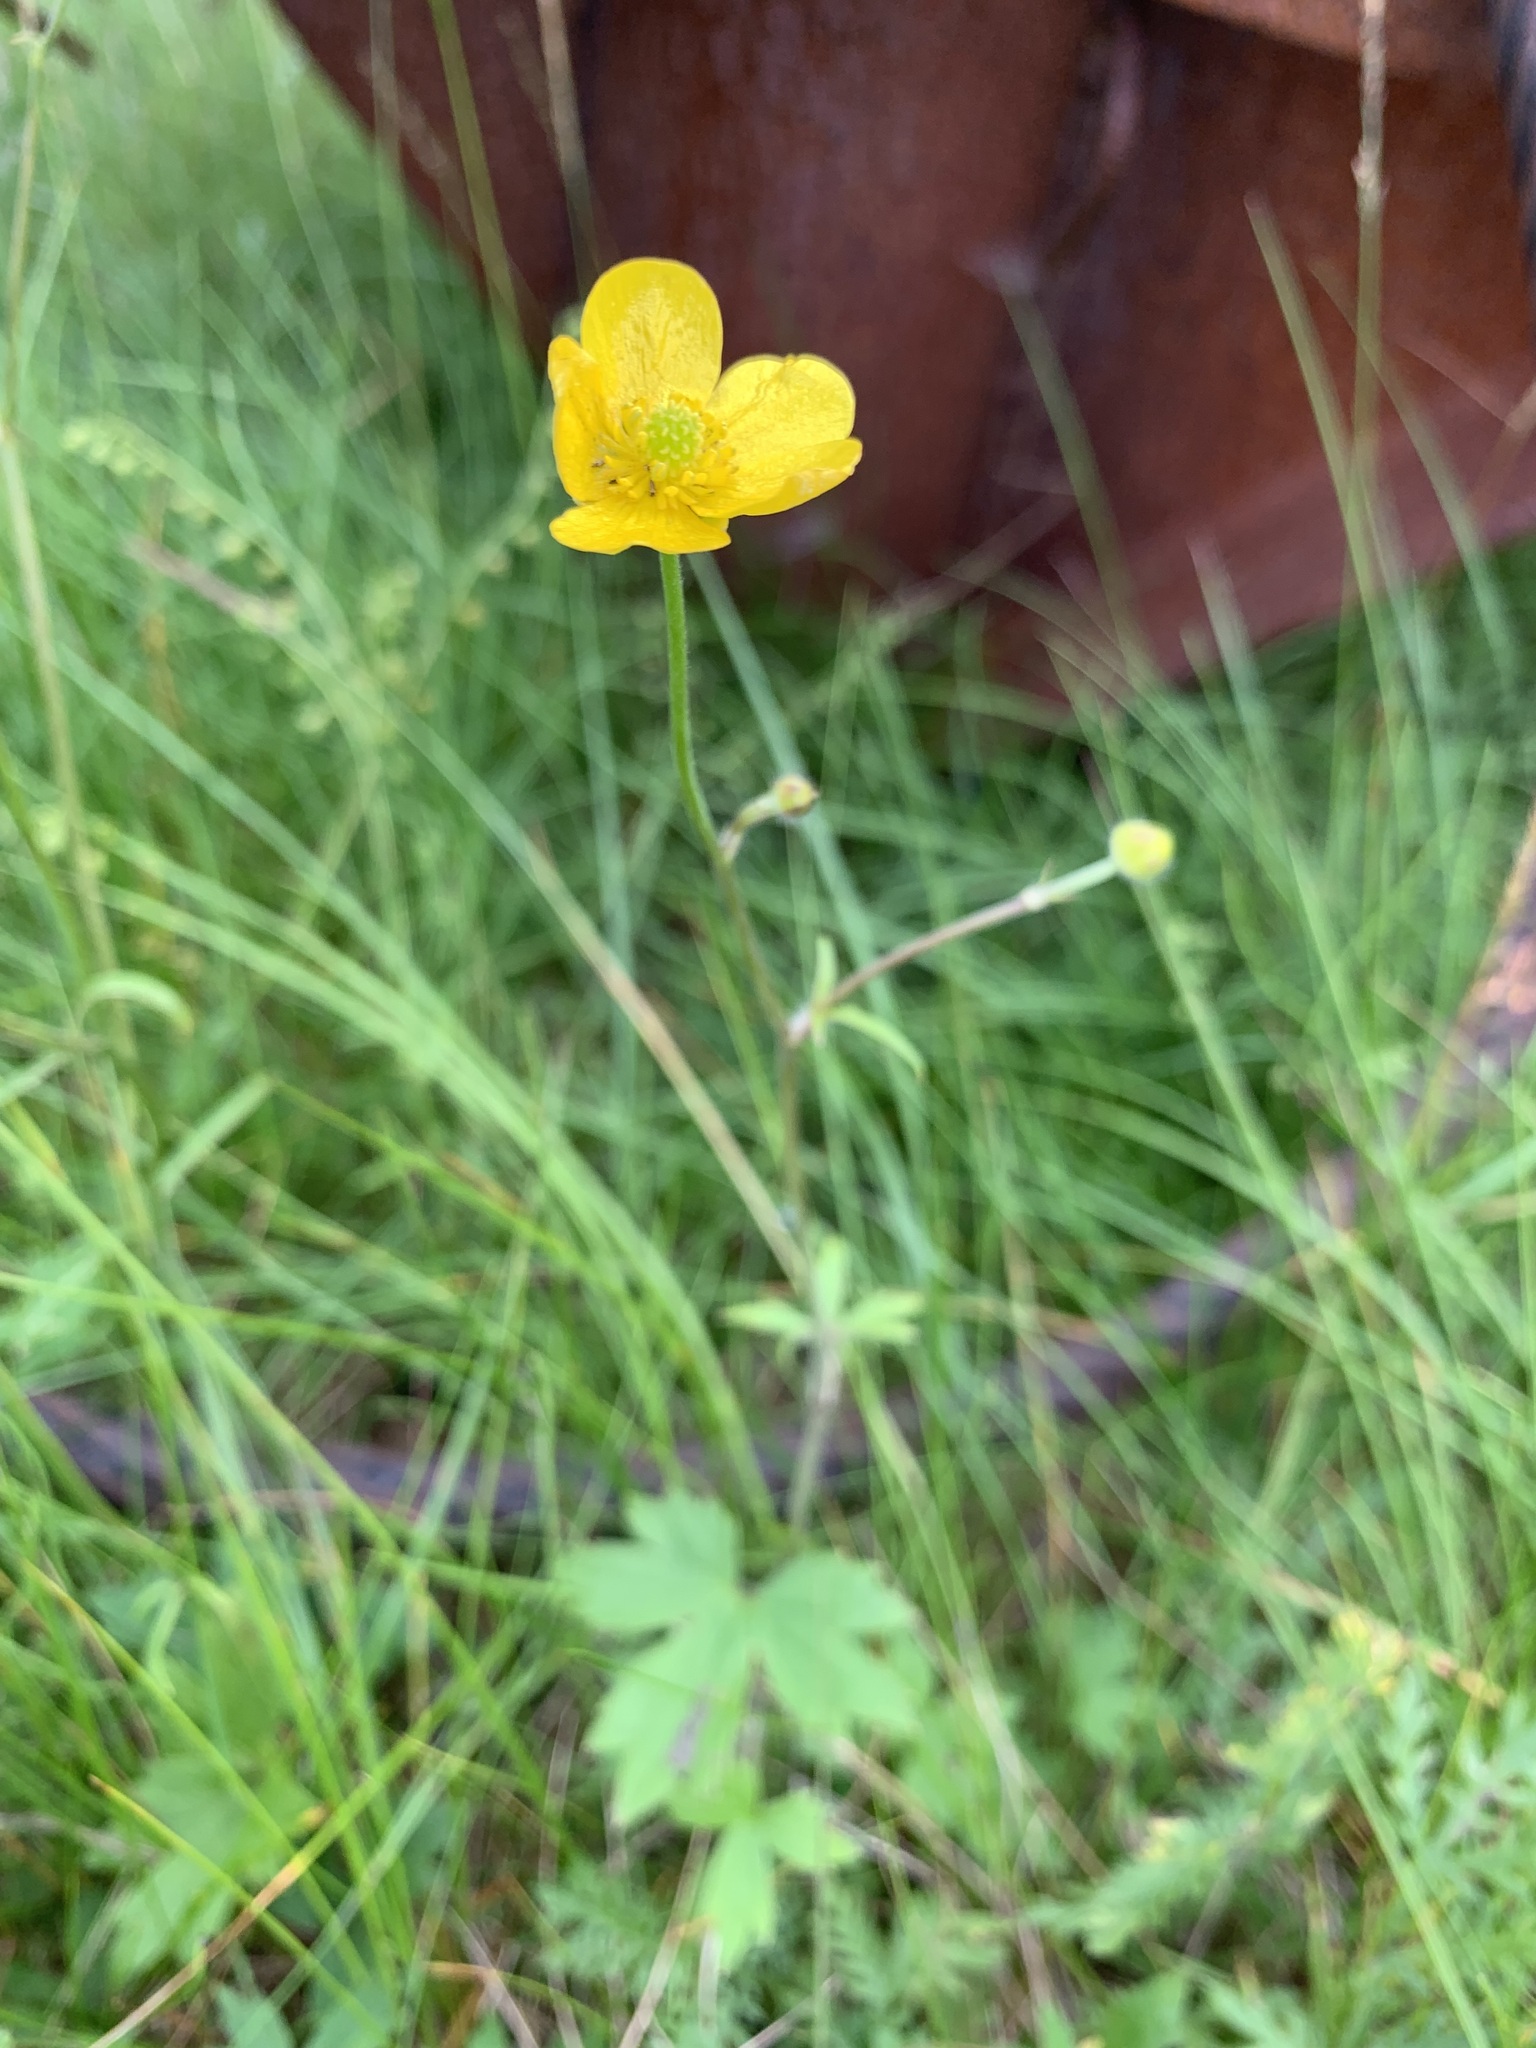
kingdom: Plantae
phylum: Tracheophyta
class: Magnoliopsida
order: Ranunculales
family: Ranunculaceae
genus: Ranunculus
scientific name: Ranunculus propinquus
